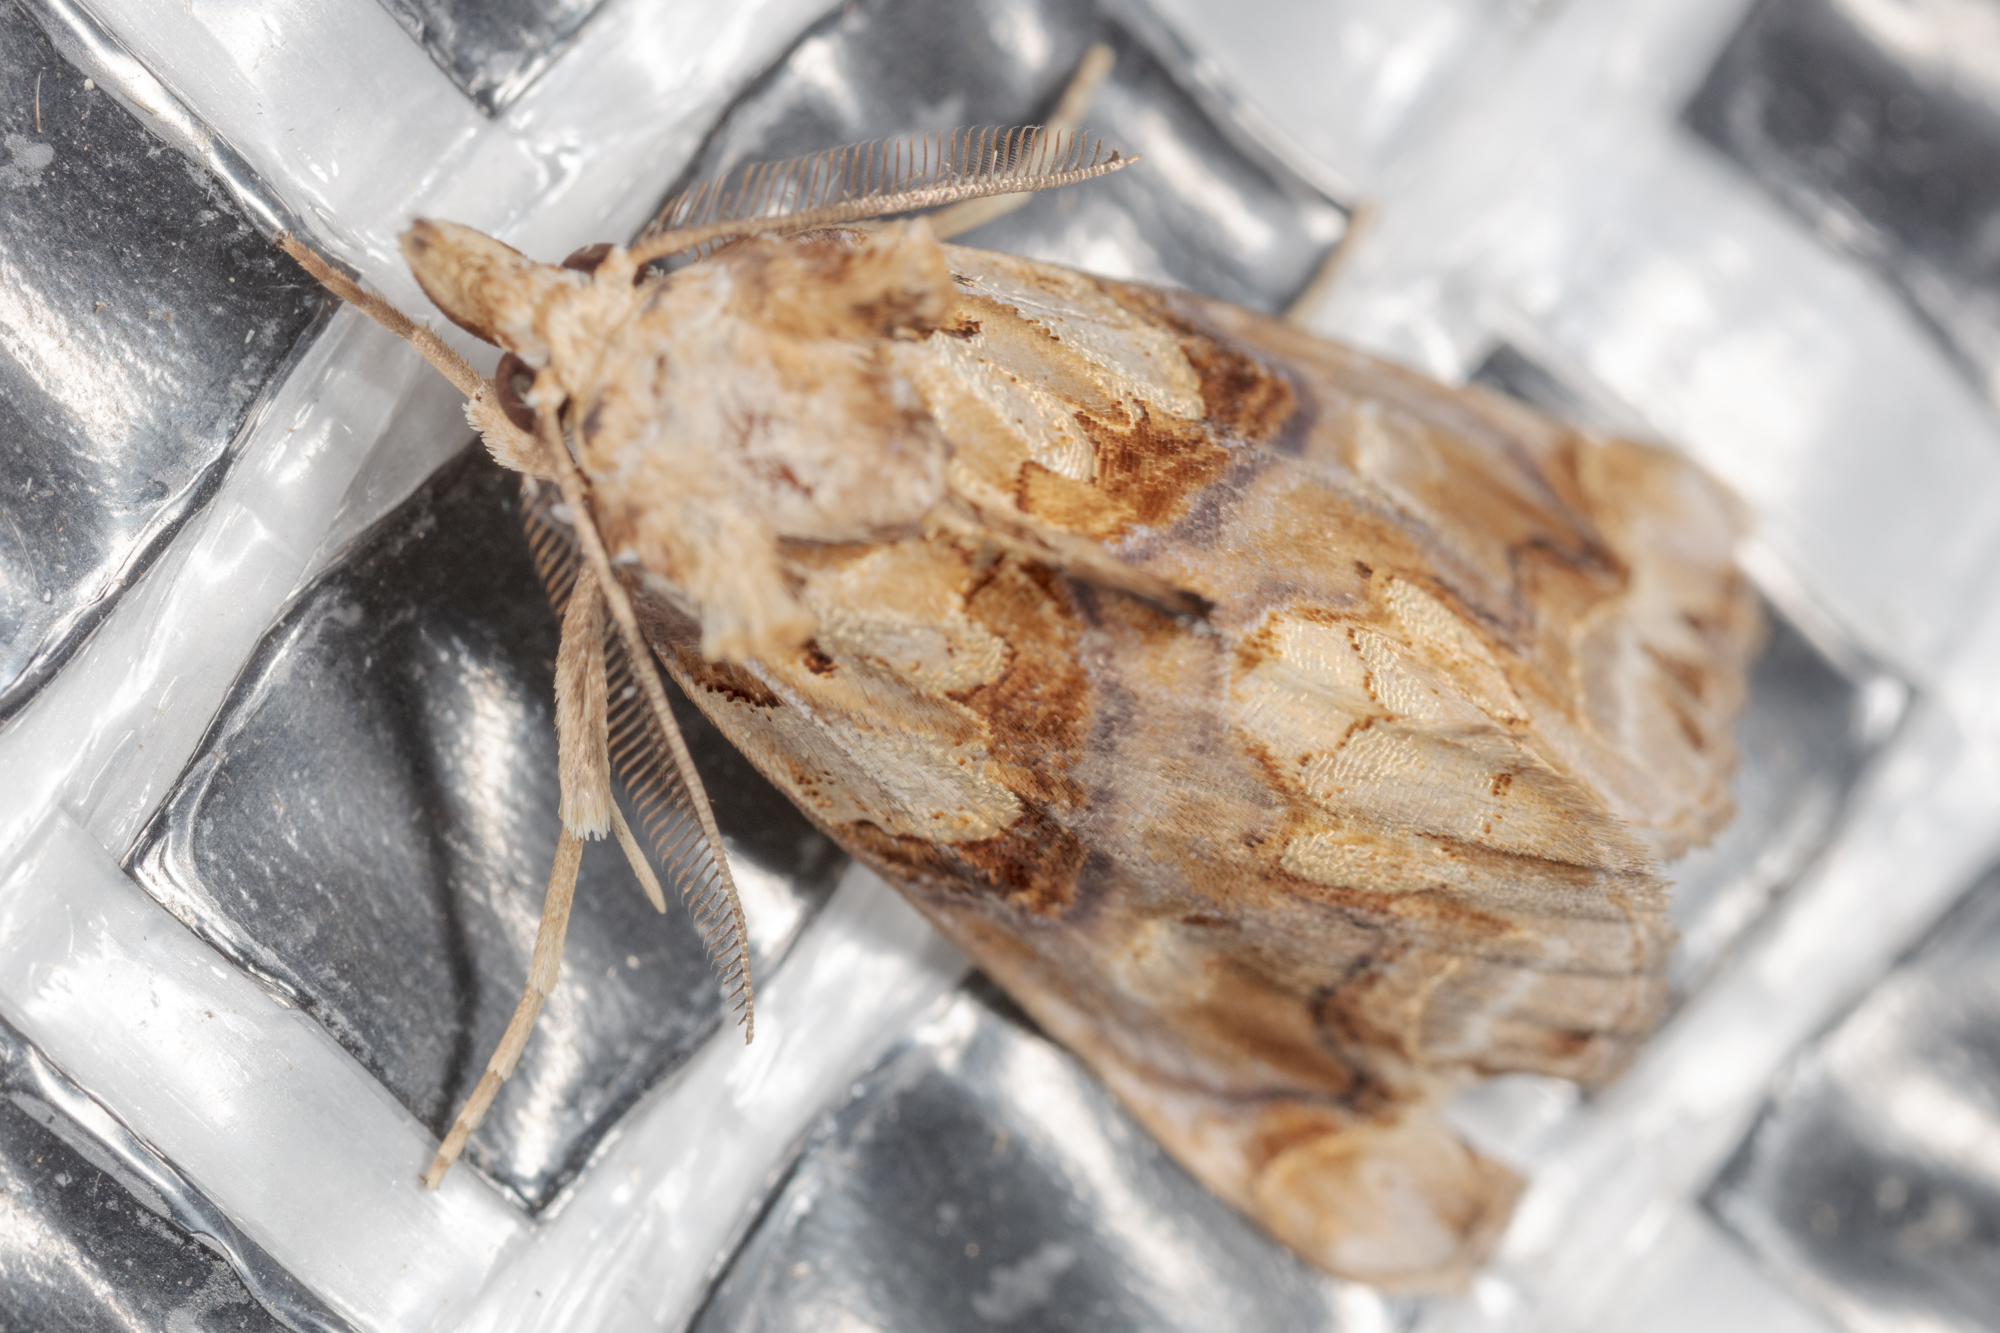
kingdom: Animalia
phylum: Arthropoda
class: Insecta
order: Lepidoptera
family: Erebidae
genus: Plusiodonta
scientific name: Plusiodonta compressipalpis
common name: Moonseed moth
